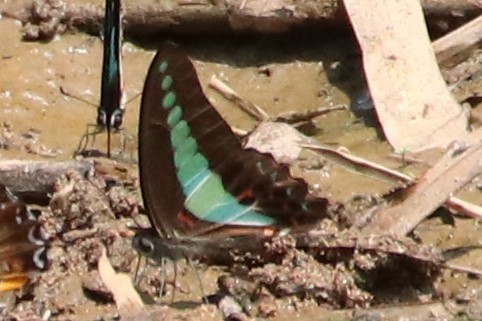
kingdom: Fungi
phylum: Ascomycota
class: Sordariomycetes
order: Microascales
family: Microascaceae
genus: Graphium
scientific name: Graphium sarpedon
